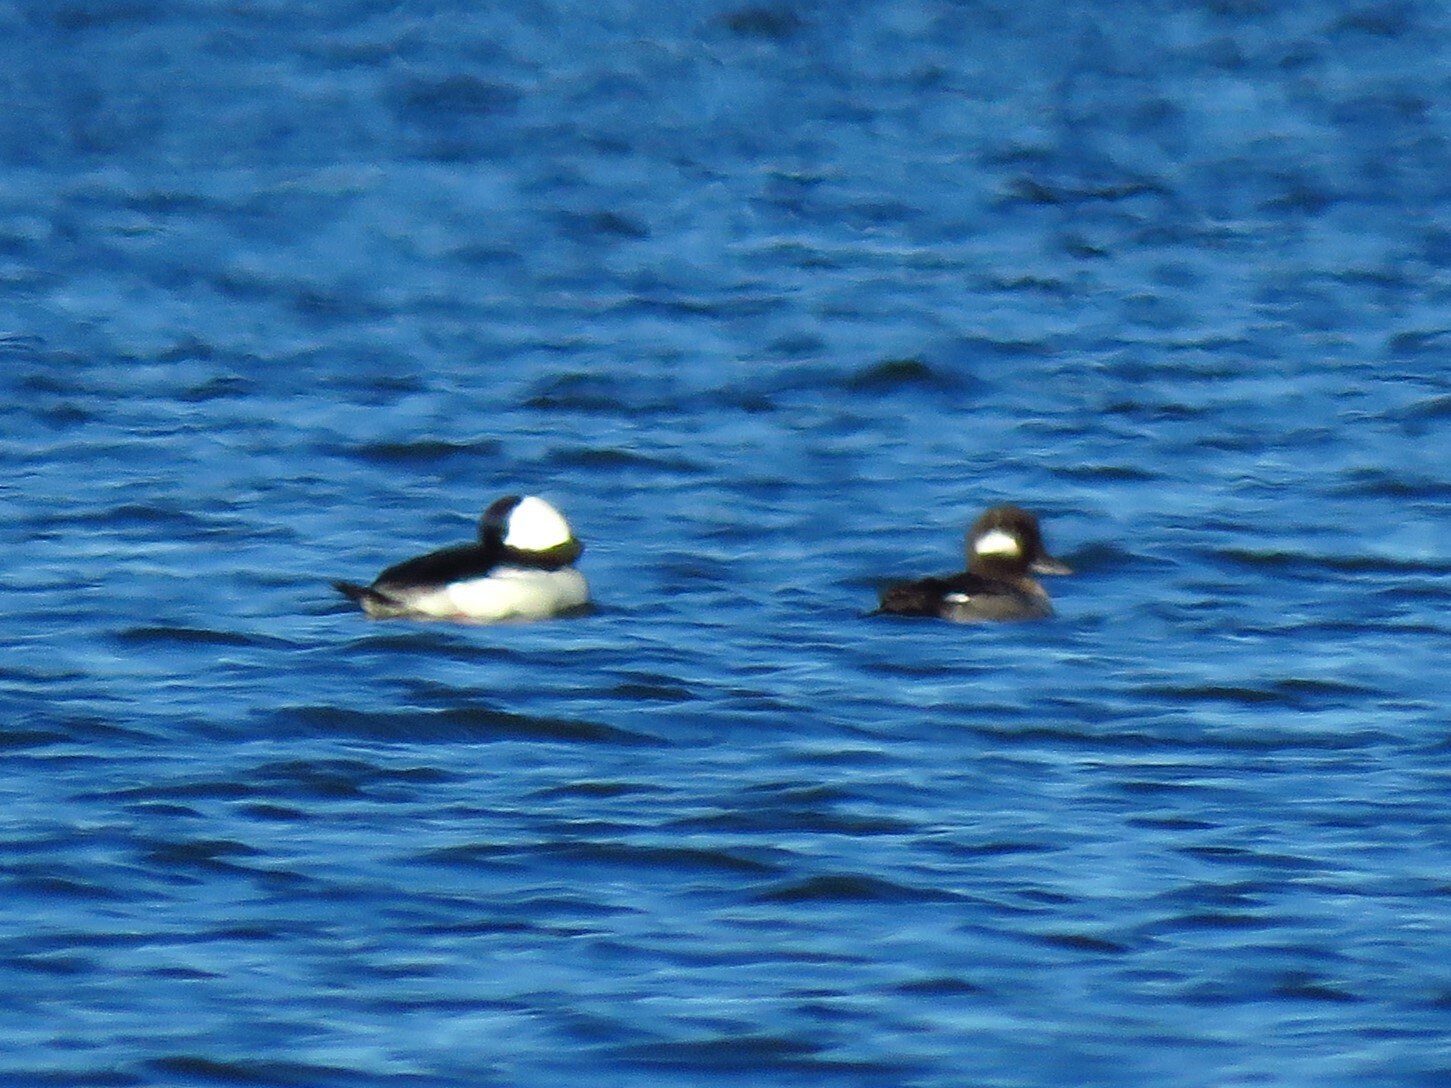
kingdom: Animalia
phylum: Chordata
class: Aves
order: Anseriformes
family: Anatidae
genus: Bucephala
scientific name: Bucephala albeola
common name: Bufflehead
